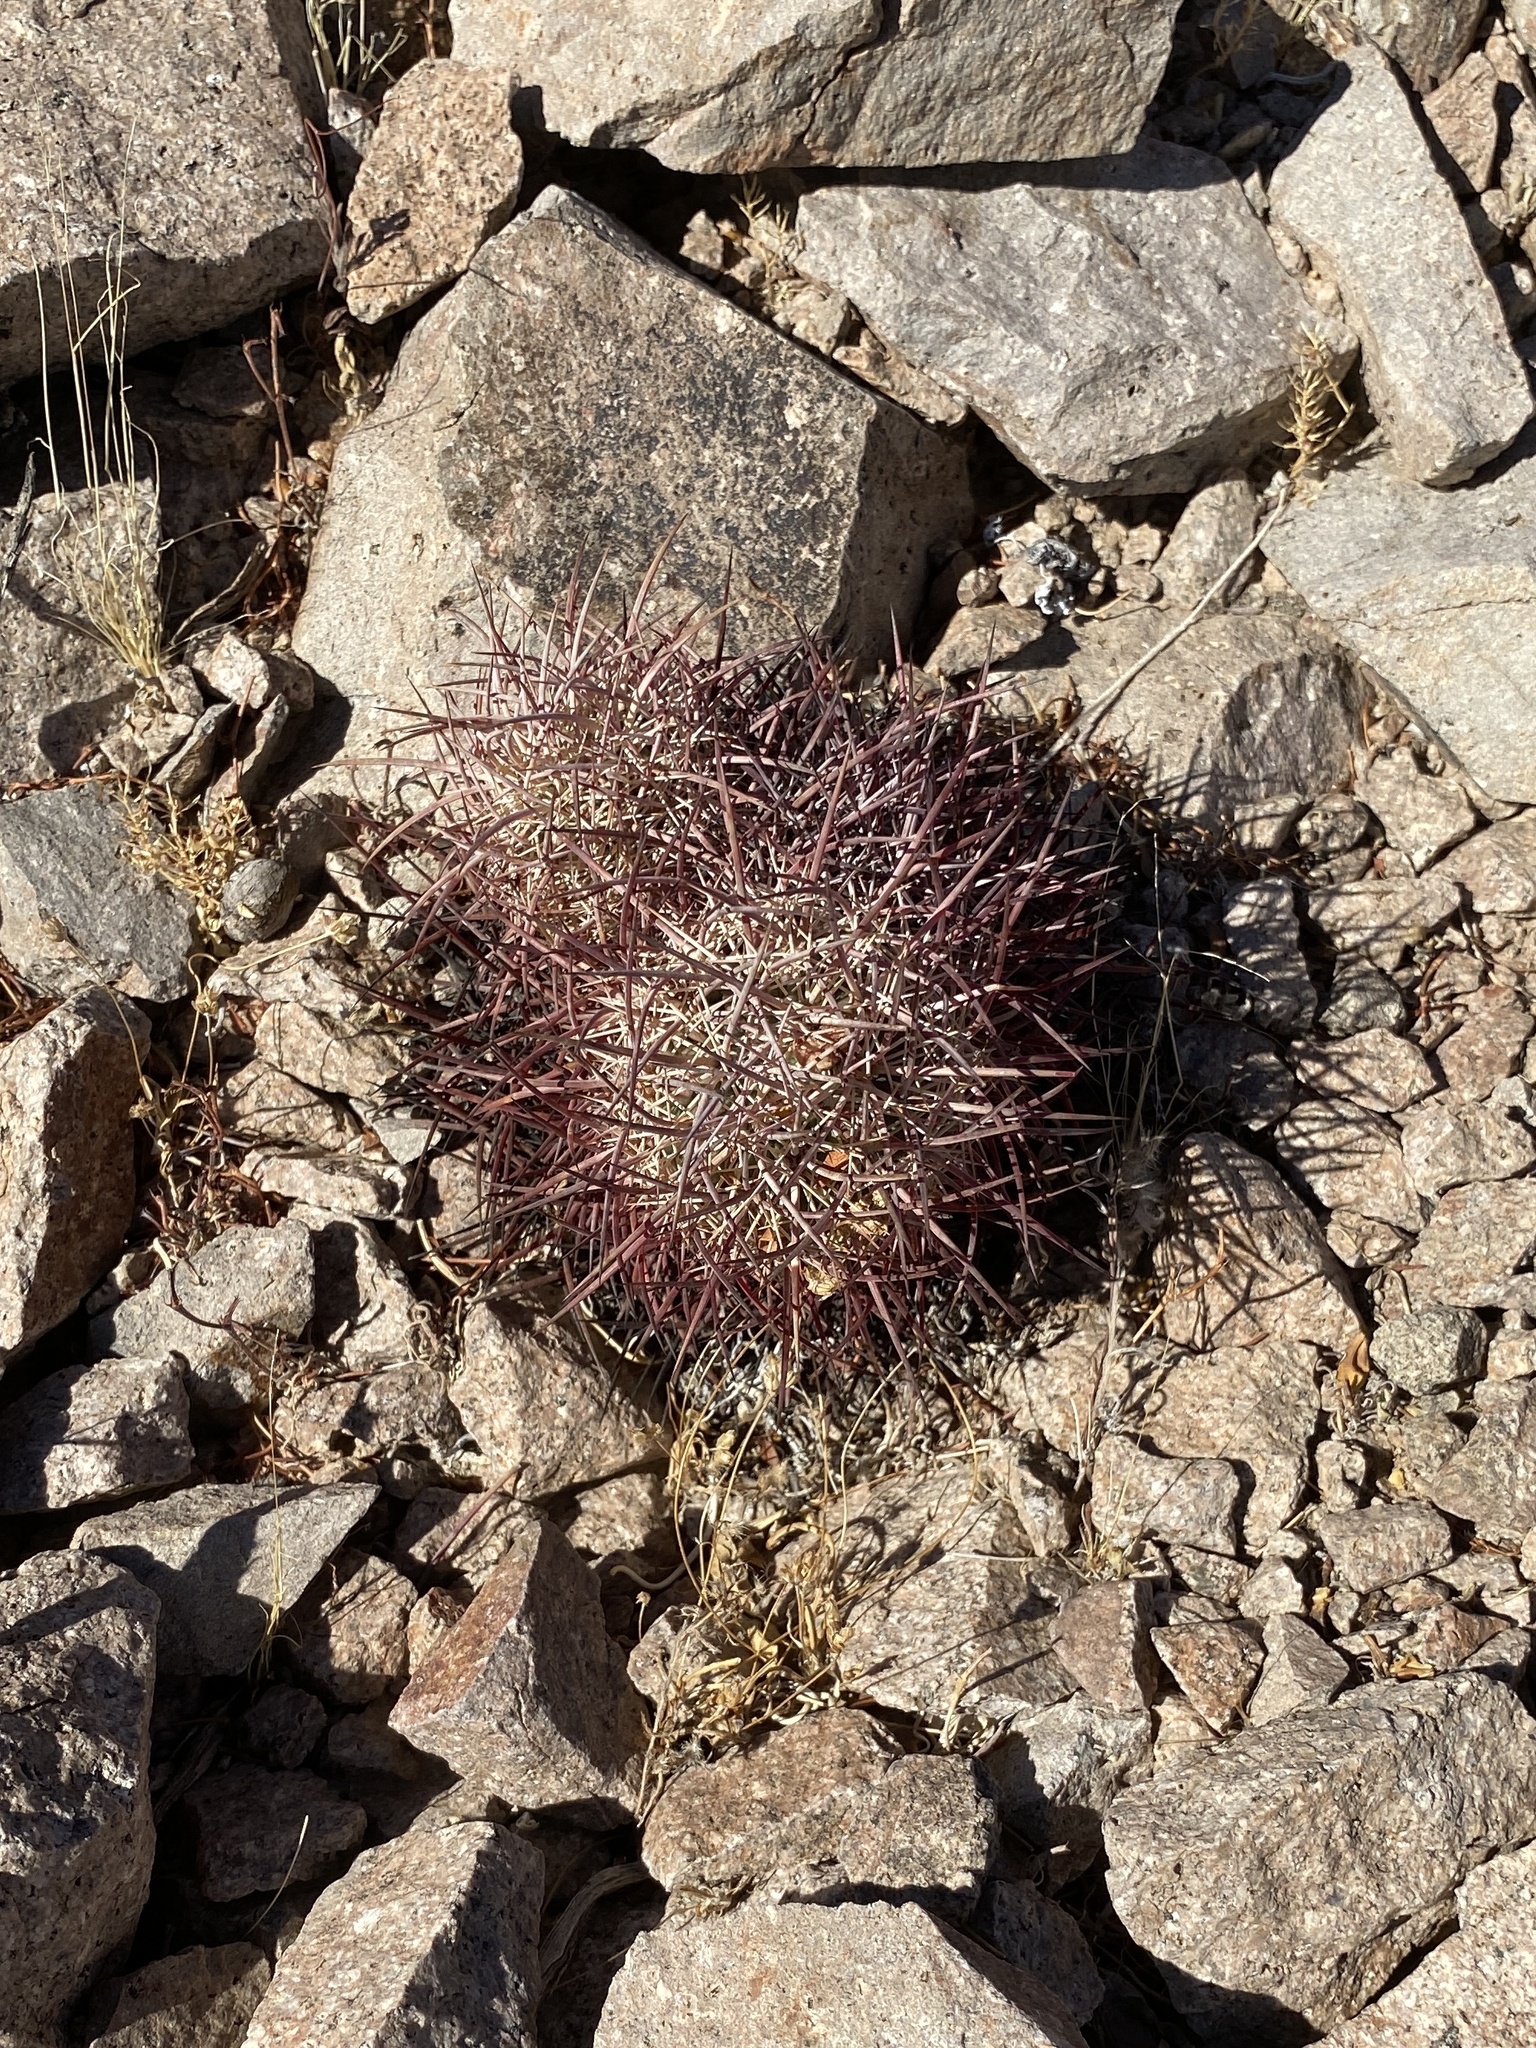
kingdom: Plantae
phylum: Tracheophyta
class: Magnoliopsida
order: Caryophyllales
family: Cactaceae
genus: Sclerocactus
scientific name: Sclerocactus johnsonii
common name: Eight-spine fishhook cactus
